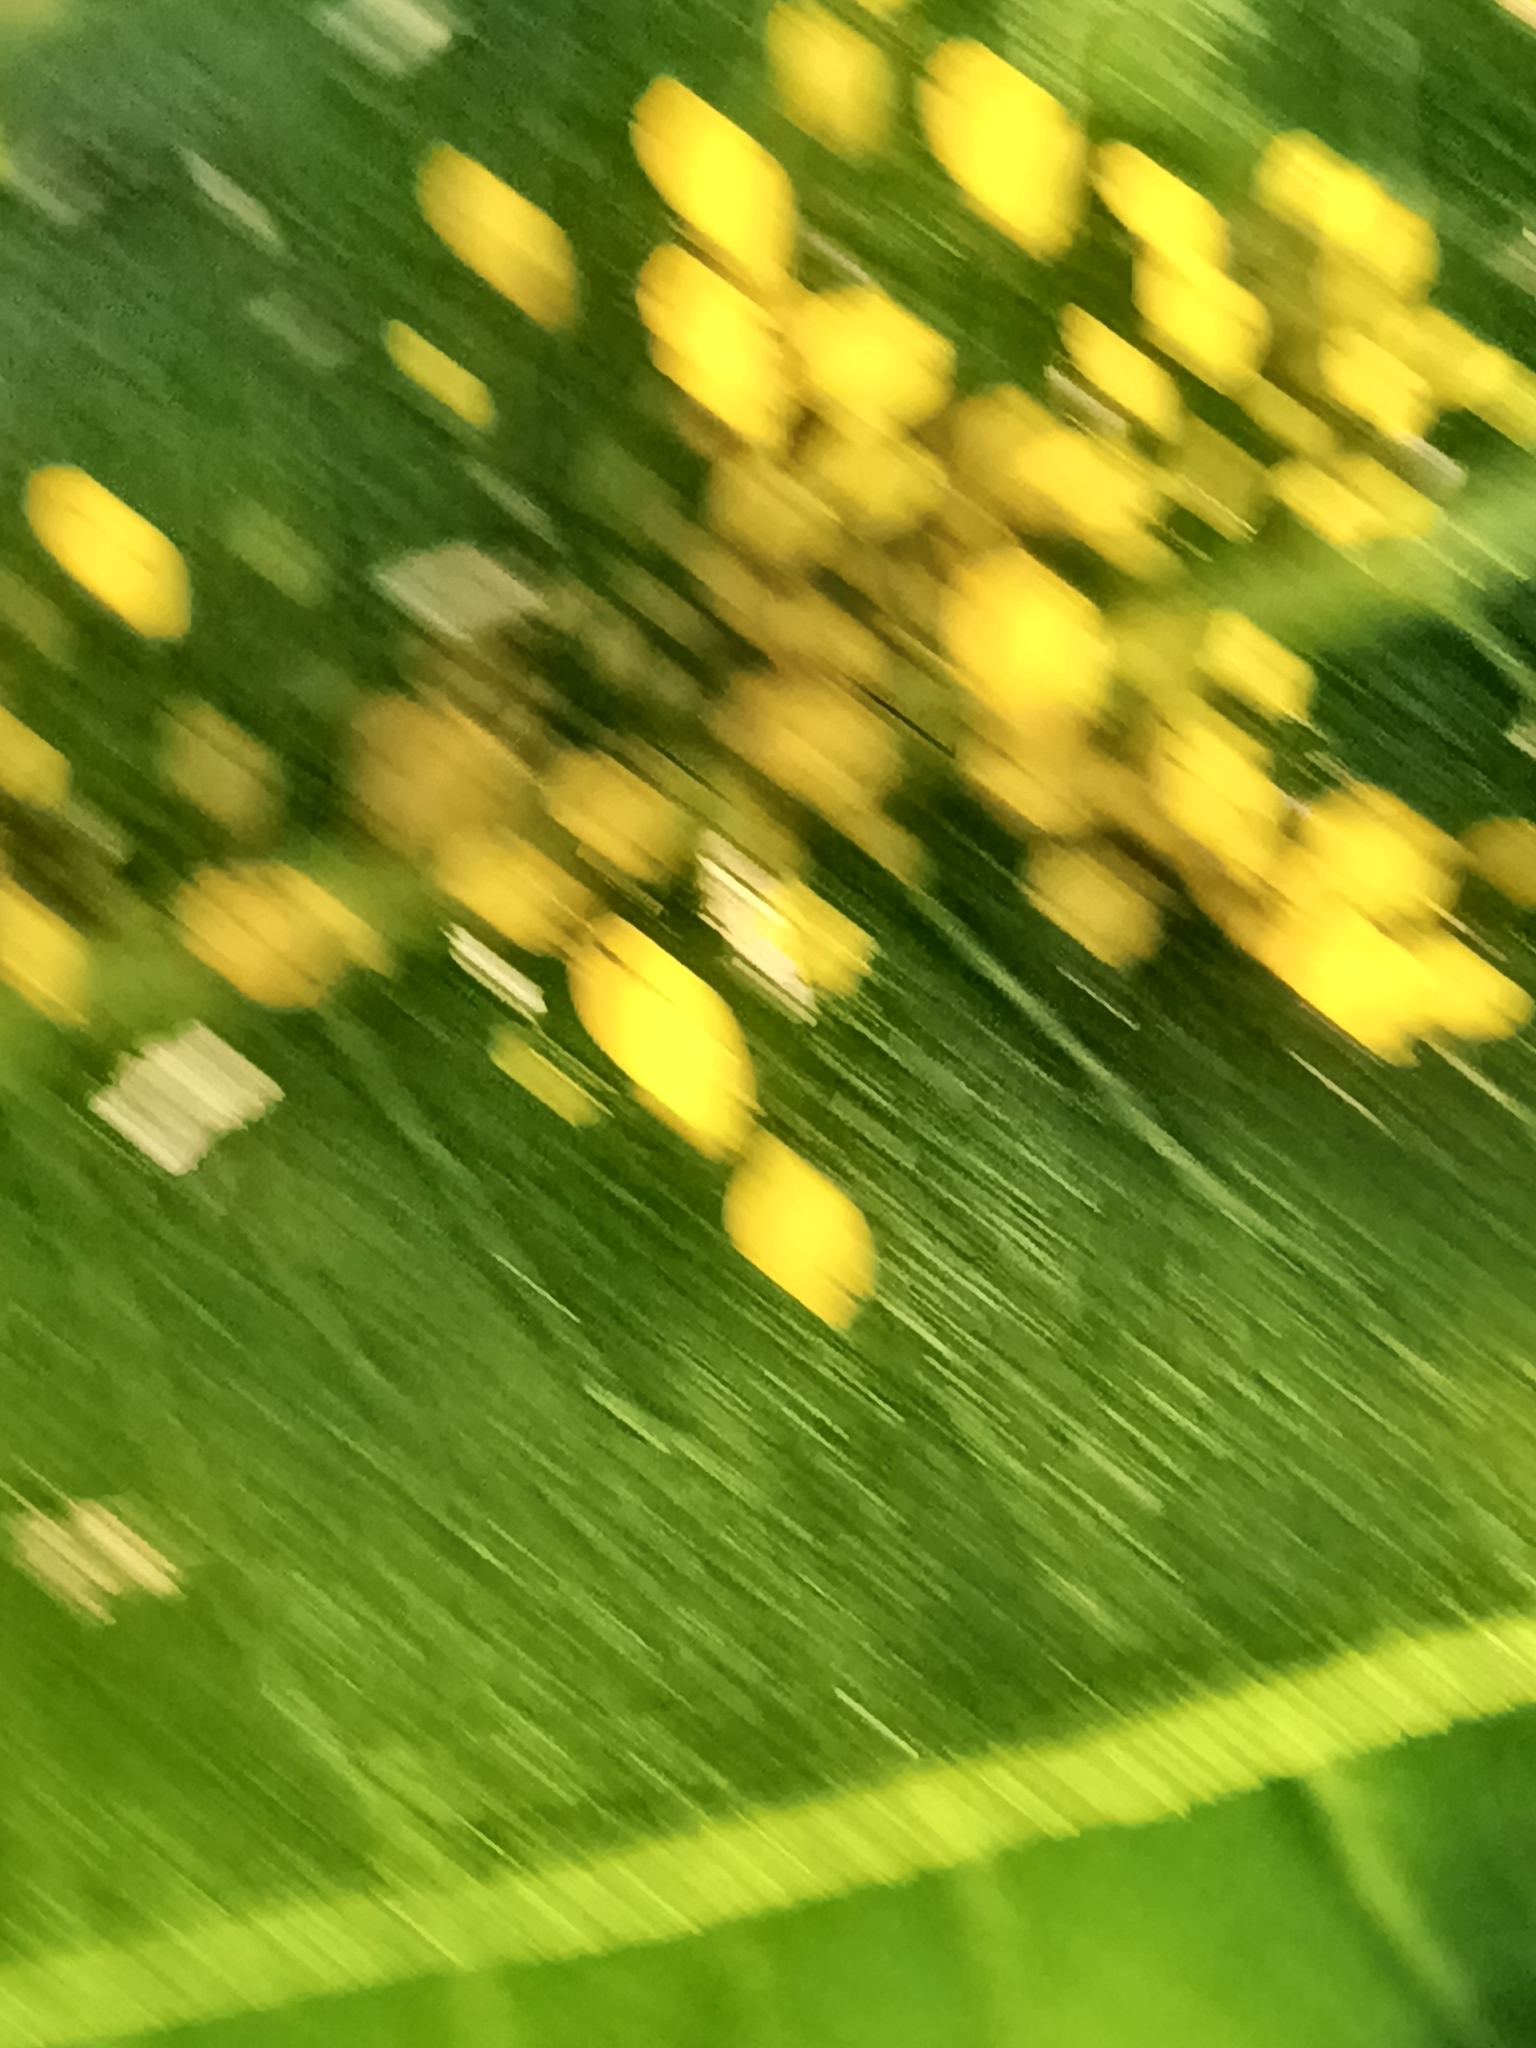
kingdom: Animalia
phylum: Arthropoda
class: Insecta
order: Hemiptera
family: Aphididae
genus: Aphis
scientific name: Aphis nerii
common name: Oleander aphid
